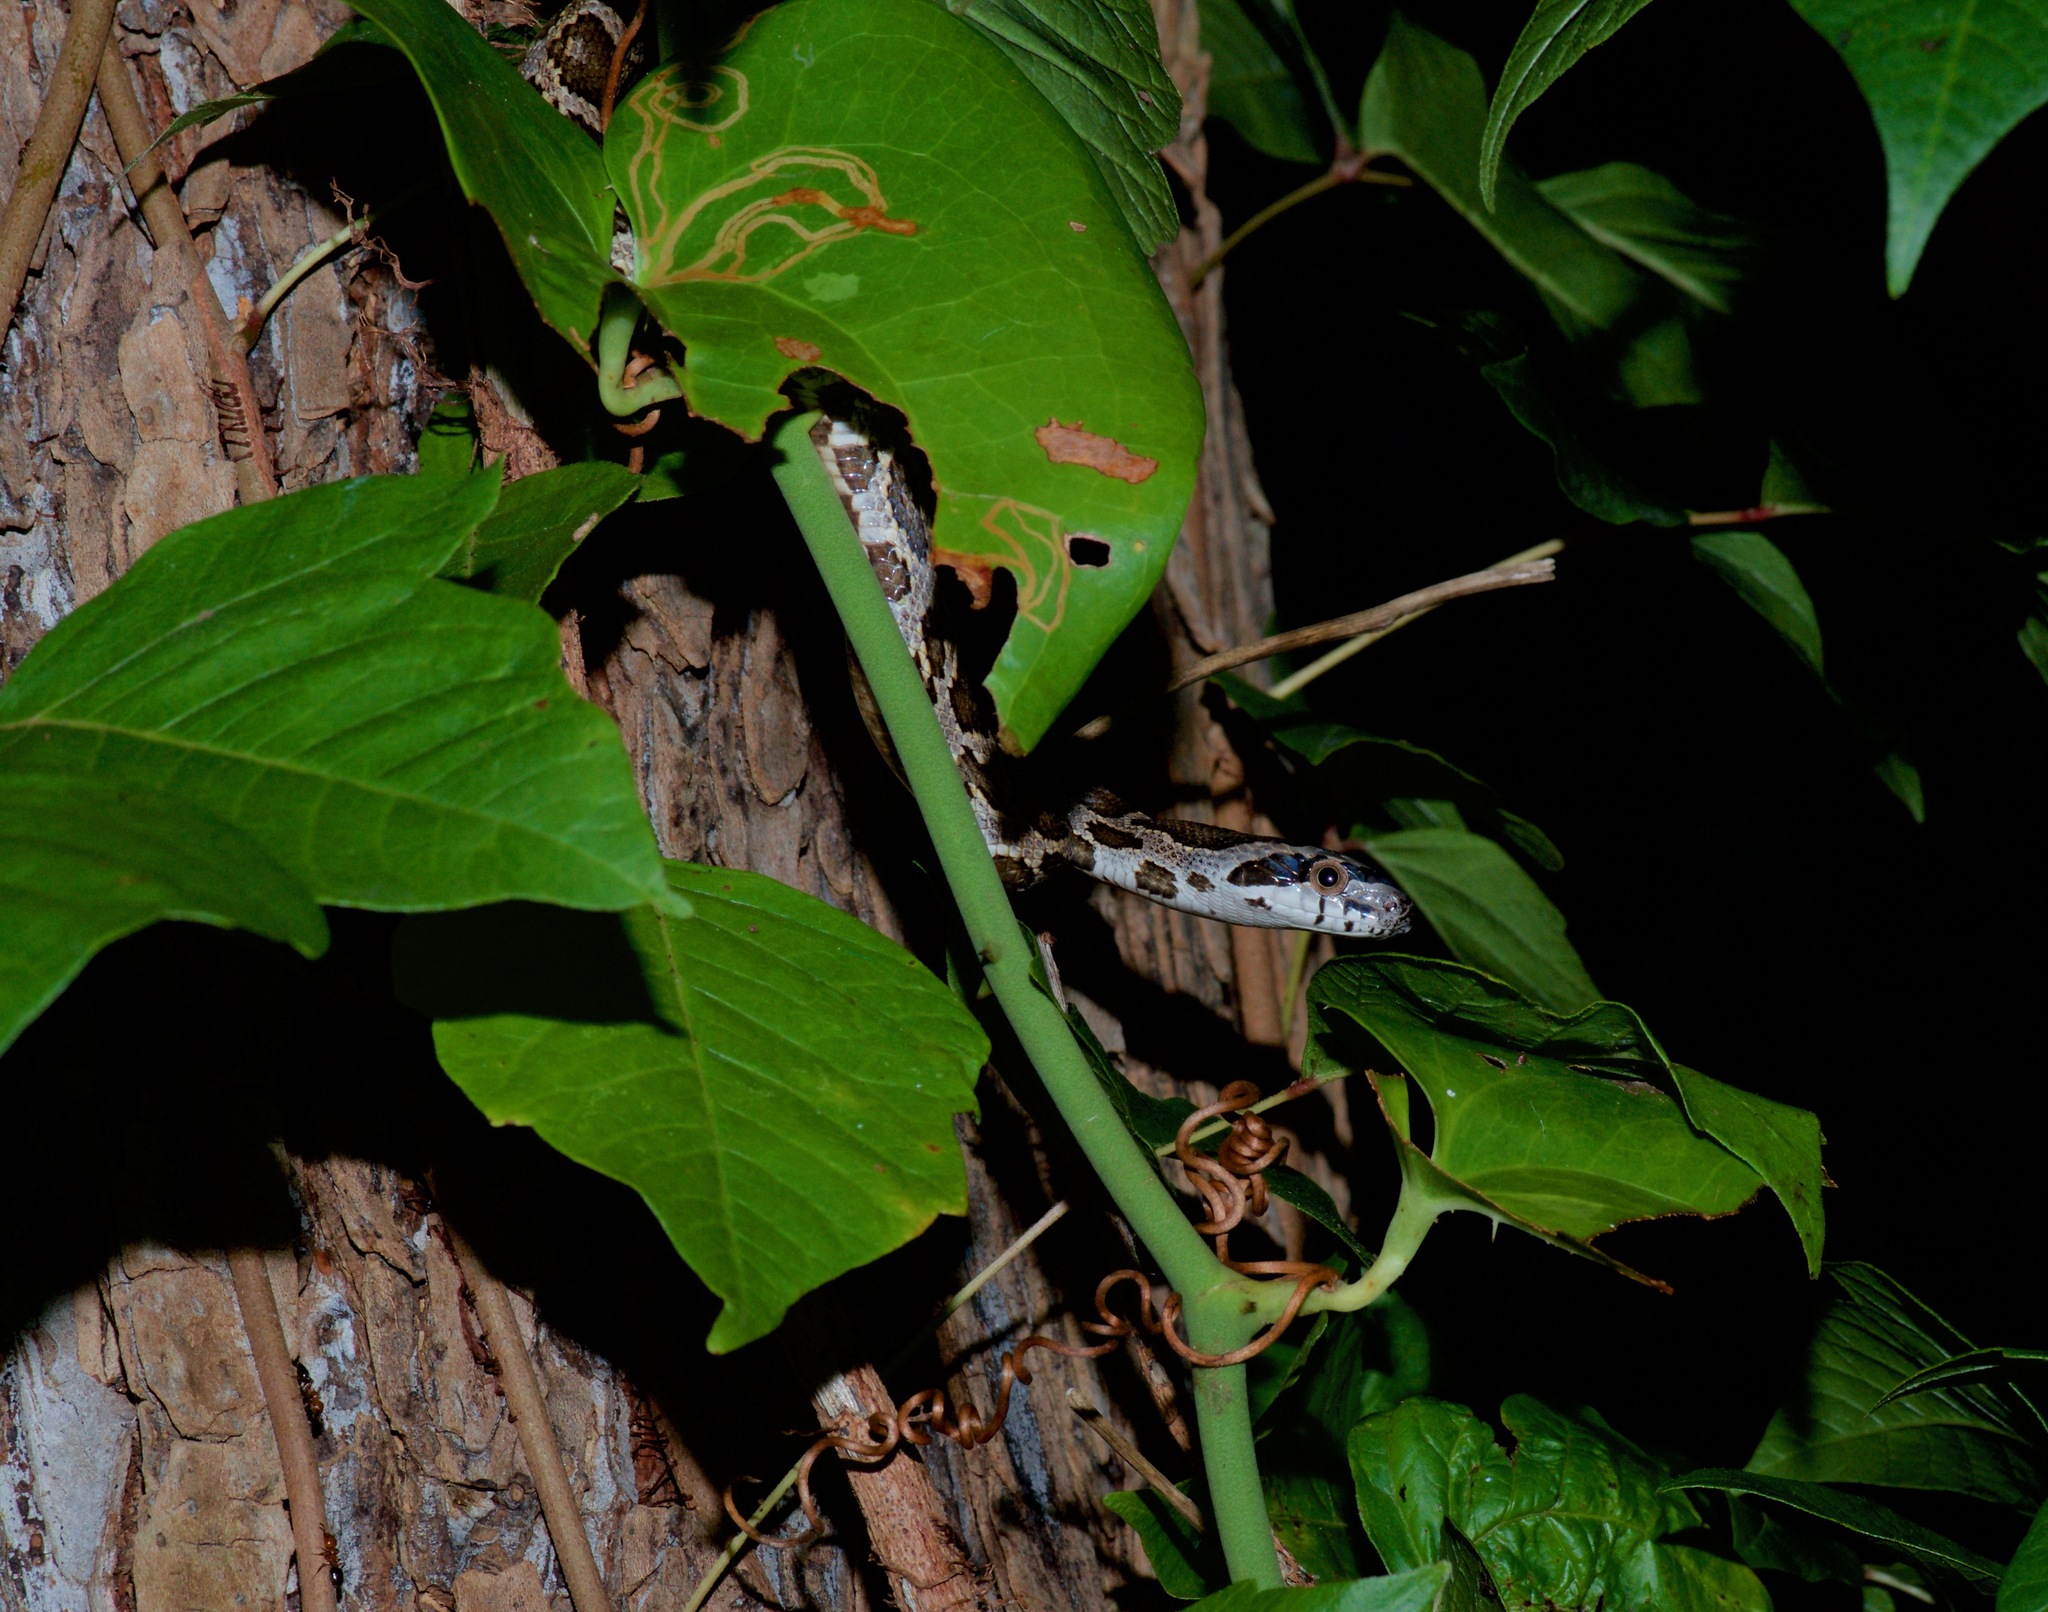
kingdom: Animalia
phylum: Chordata
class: Squamata
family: Colubridae
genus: Pantherophis
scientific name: Pantherophis obsoletus
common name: Black rat snake
